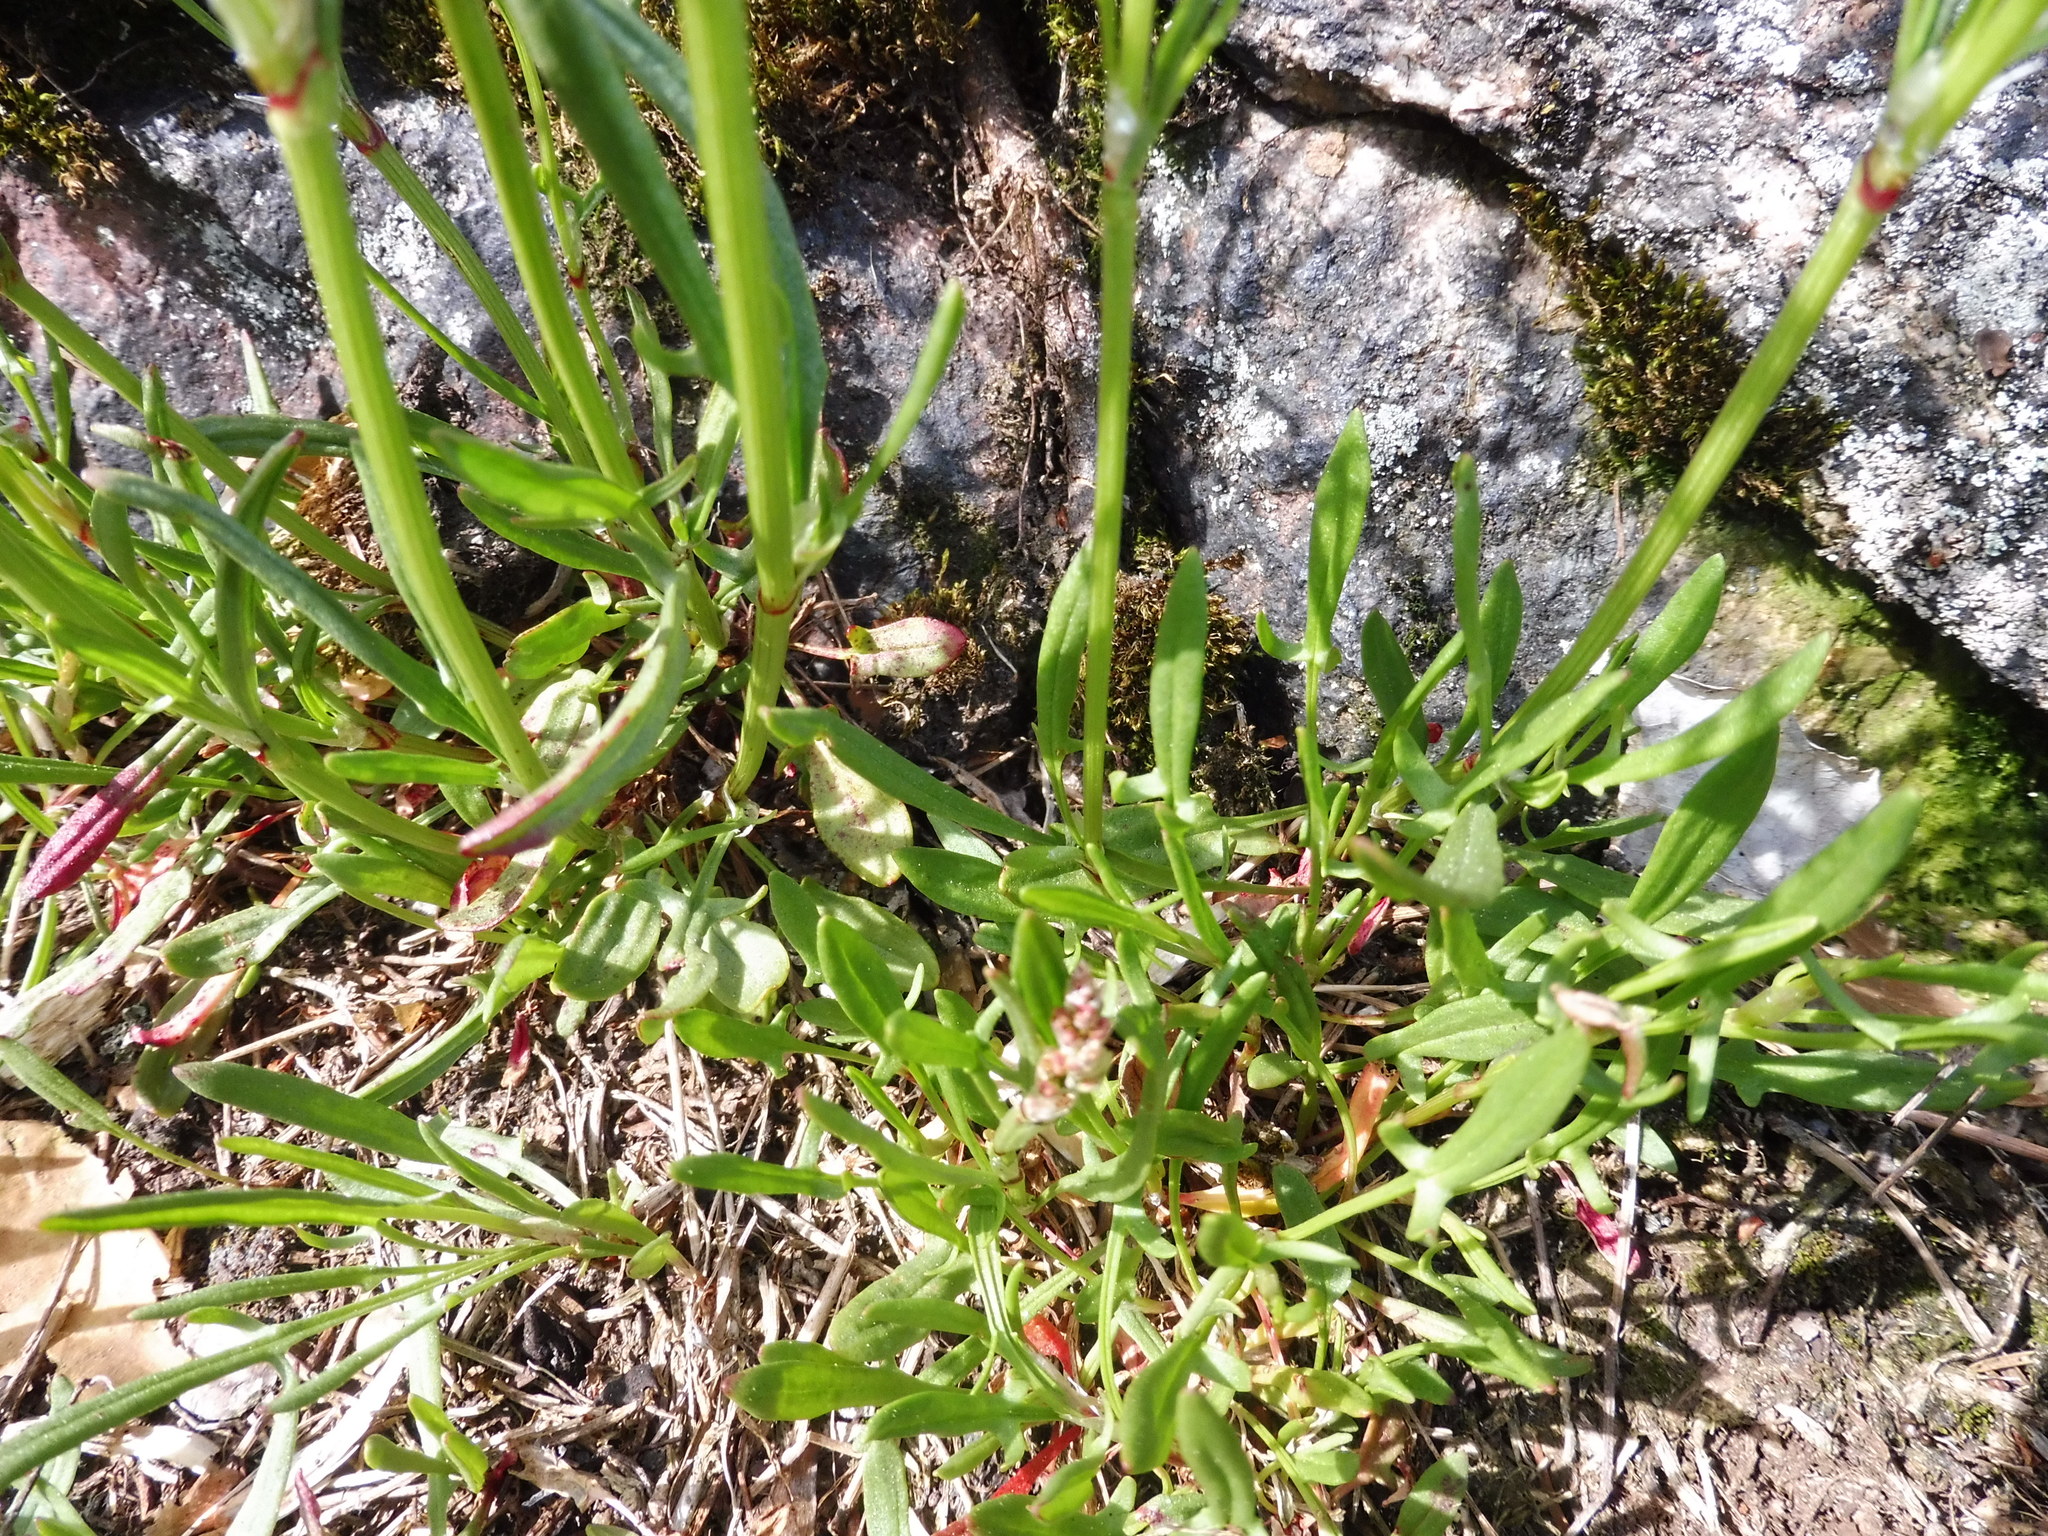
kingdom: Plantae
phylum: Tracheophyta
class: Magnoliopsida
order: Caryophyllales
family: Polygonaceae
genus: Rumex
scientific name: Rumex acetosella
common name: Common sheep sorrel
